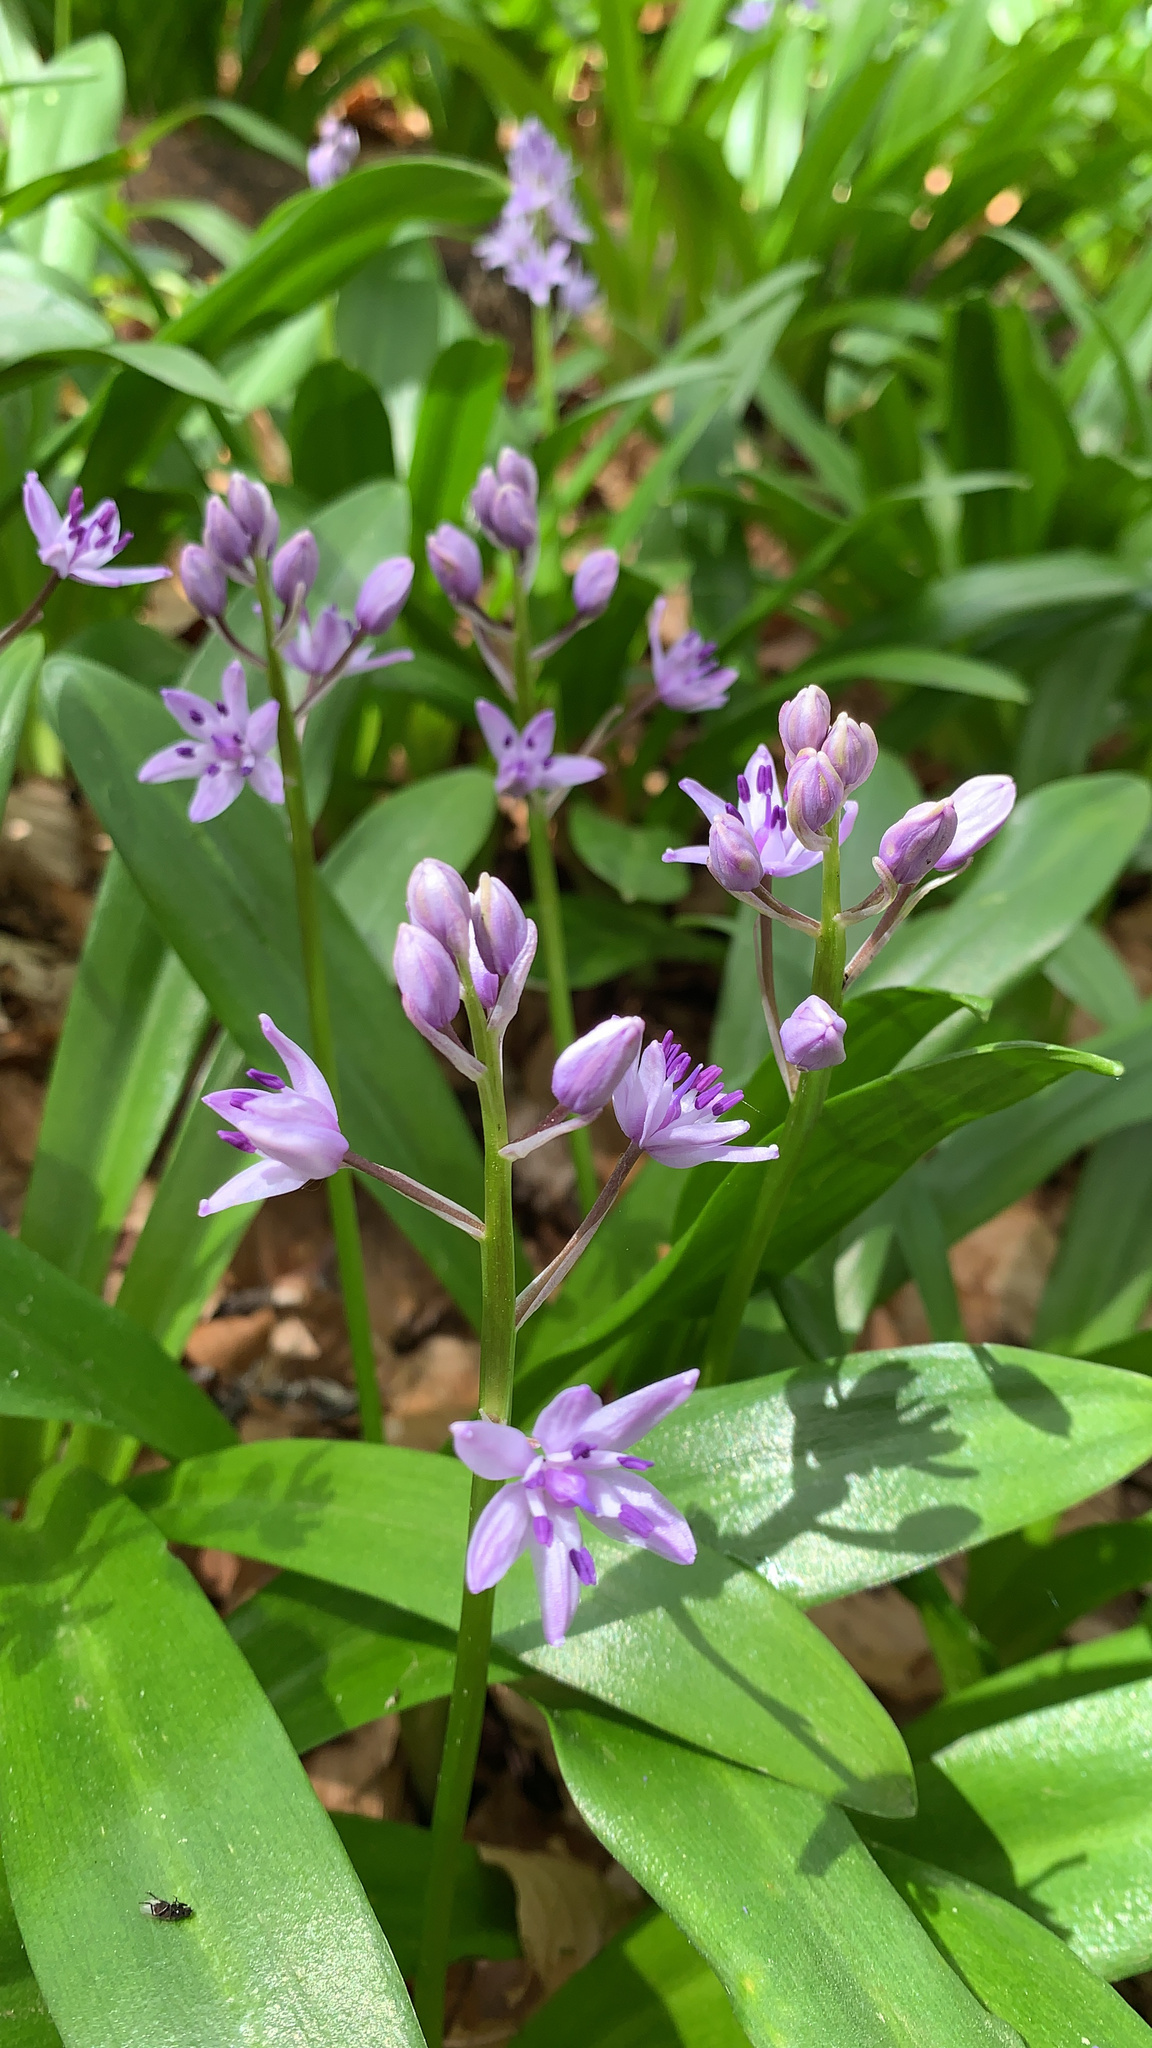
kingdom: Plantae
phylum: Tracheophyta
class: Liliopsida
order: Asparagales
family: Asparagaceae
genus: Scilla
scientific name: Scilla lilio-hyacinthus
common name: Pyrenean squill
